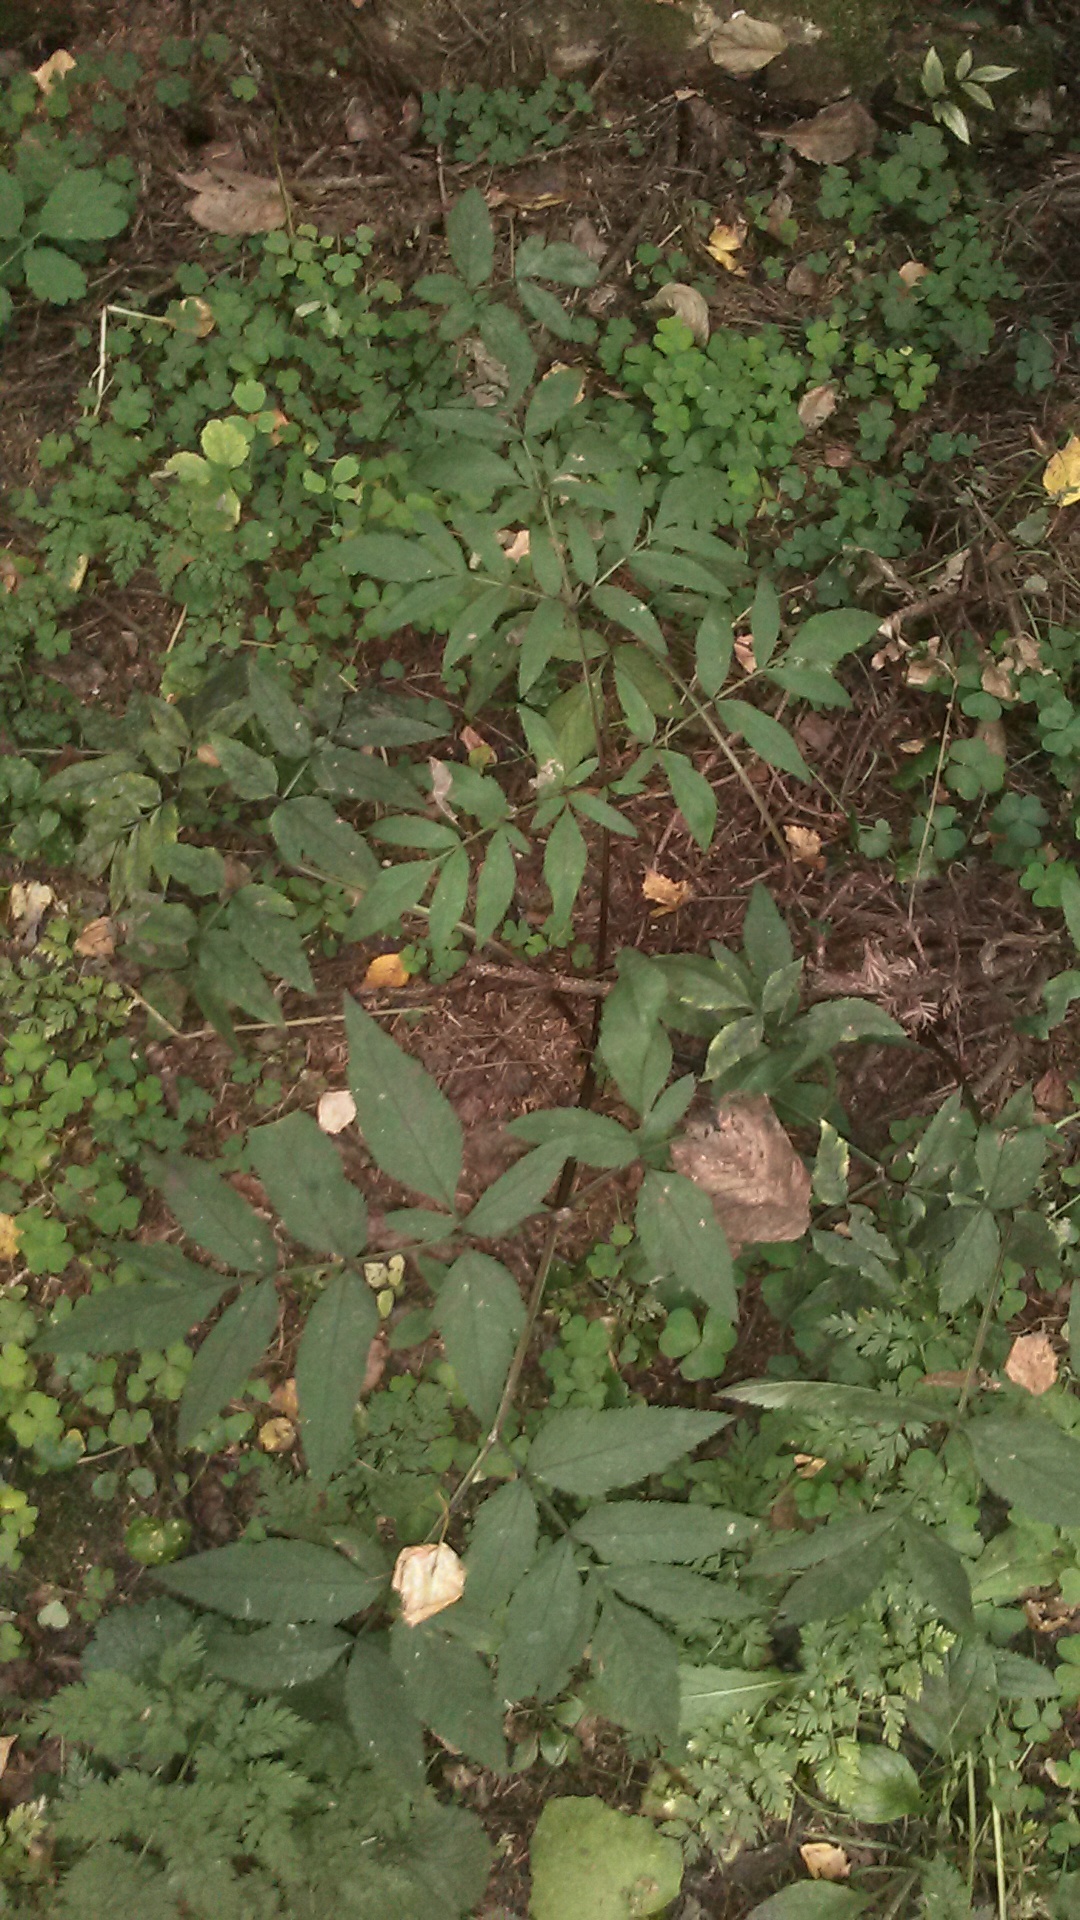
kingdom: Plantae
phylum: Tracheophyta
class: Magnoliopsida
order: Apiales
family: Apiaceae
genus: Angelica
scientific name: Angelica sylvestris
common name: Wild angelica
